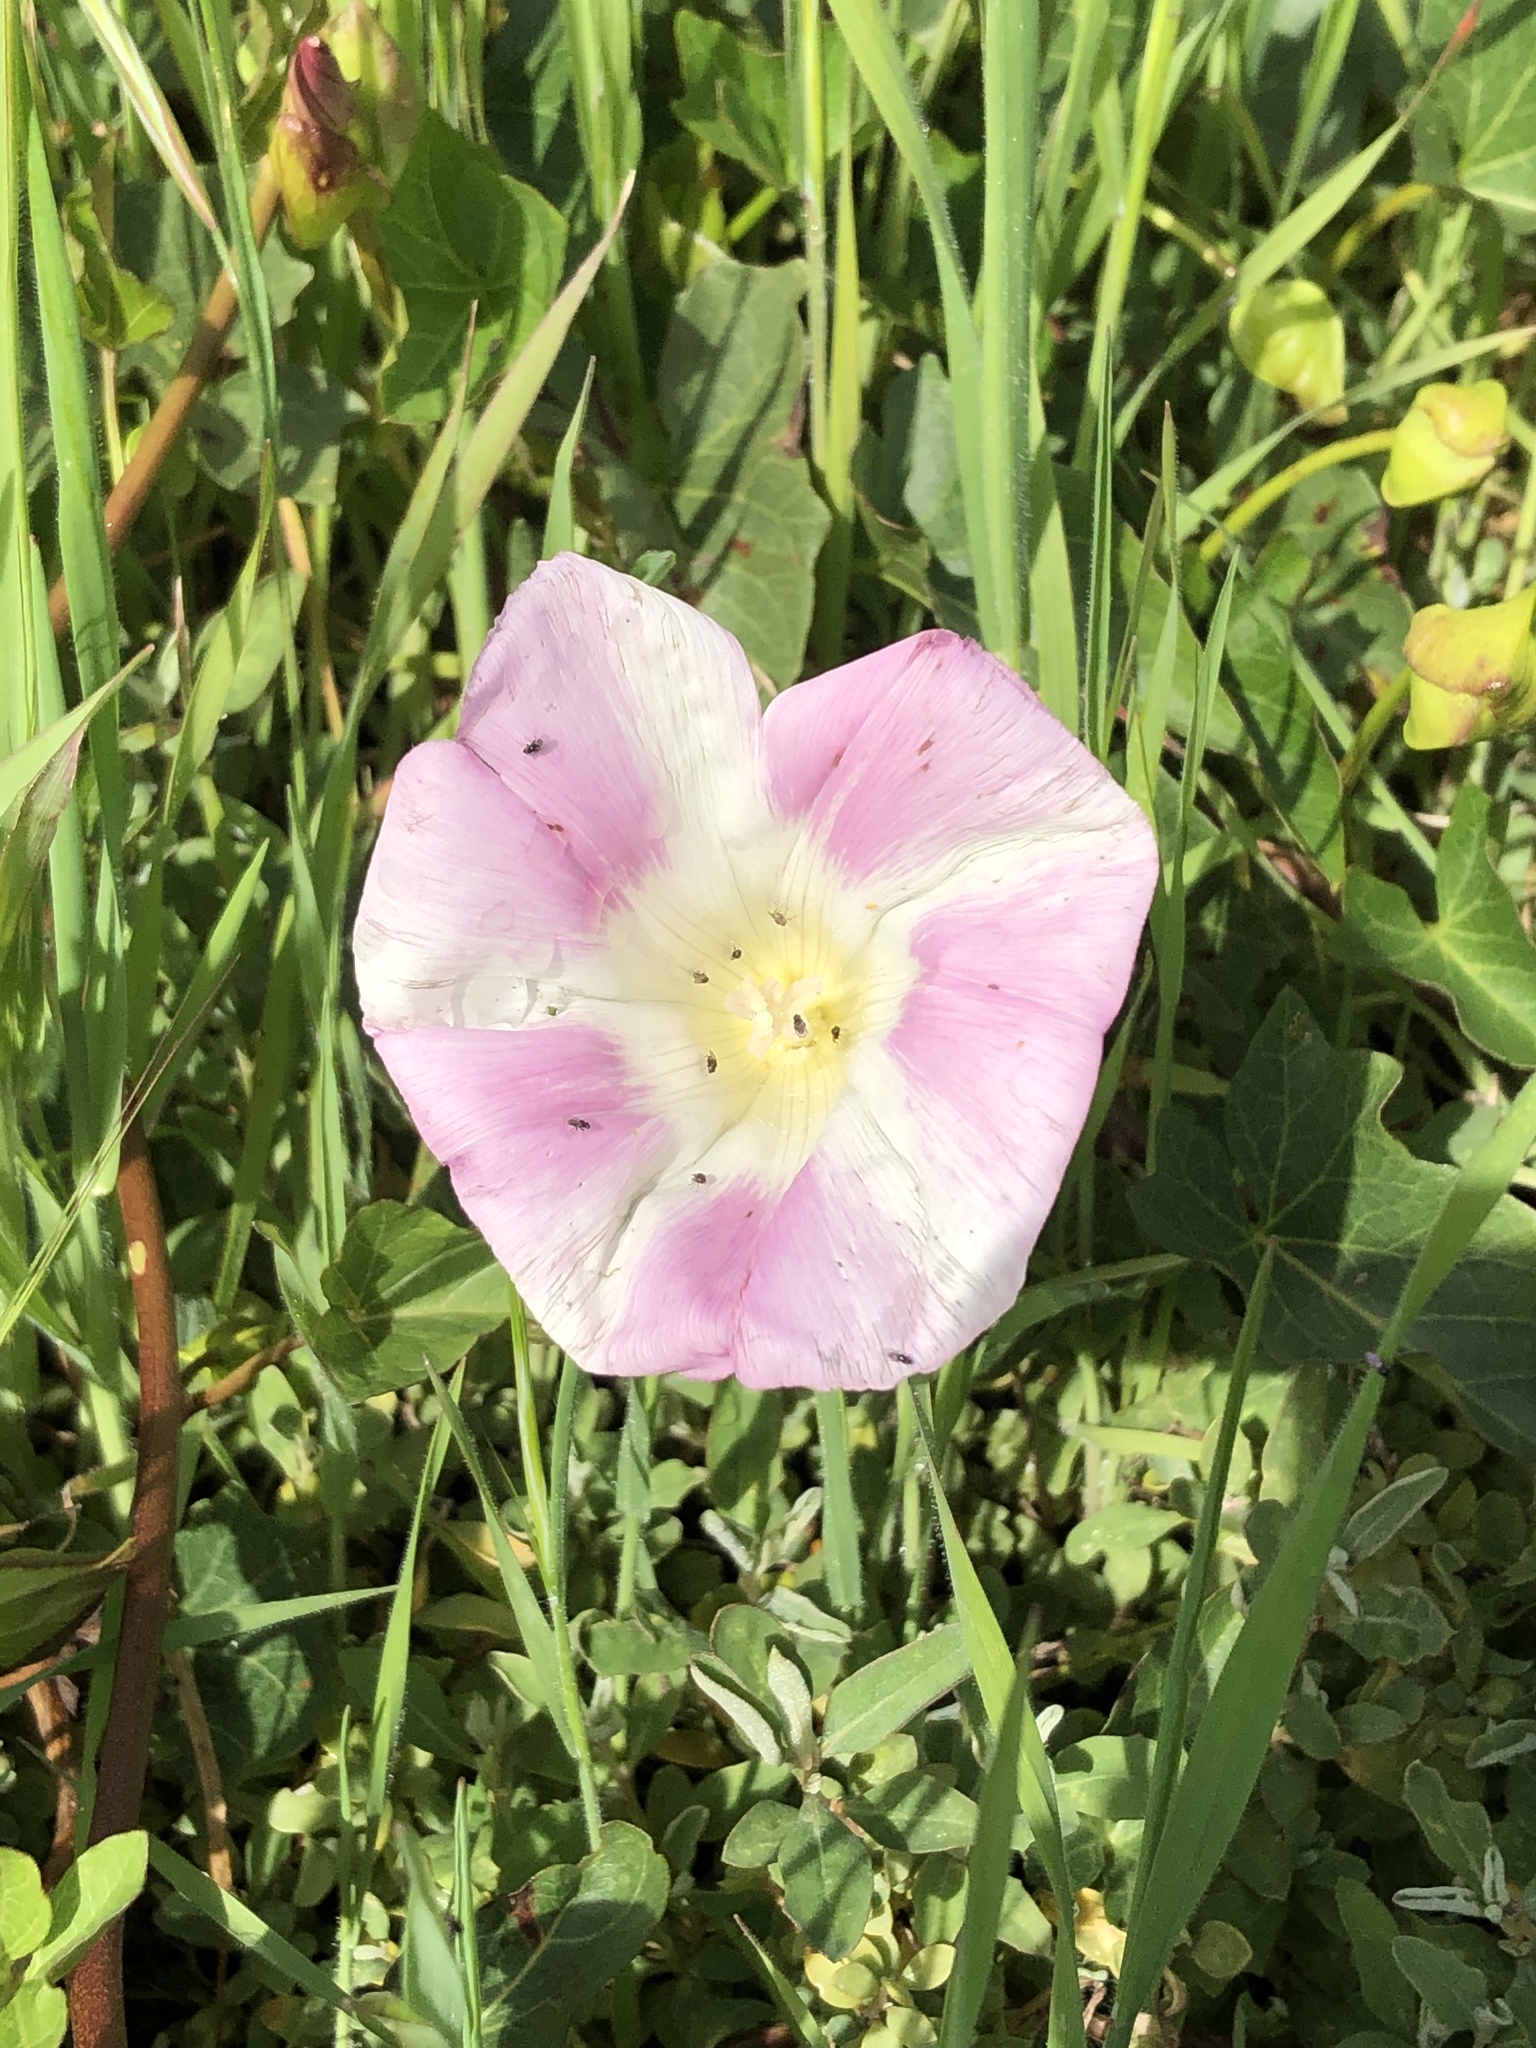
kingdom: Plantae
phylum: Tracheophyta
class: Magnoliopsida
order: Solanales
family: Convolvulaceae
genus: Calystegia
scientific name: Calystegia macrostegia
